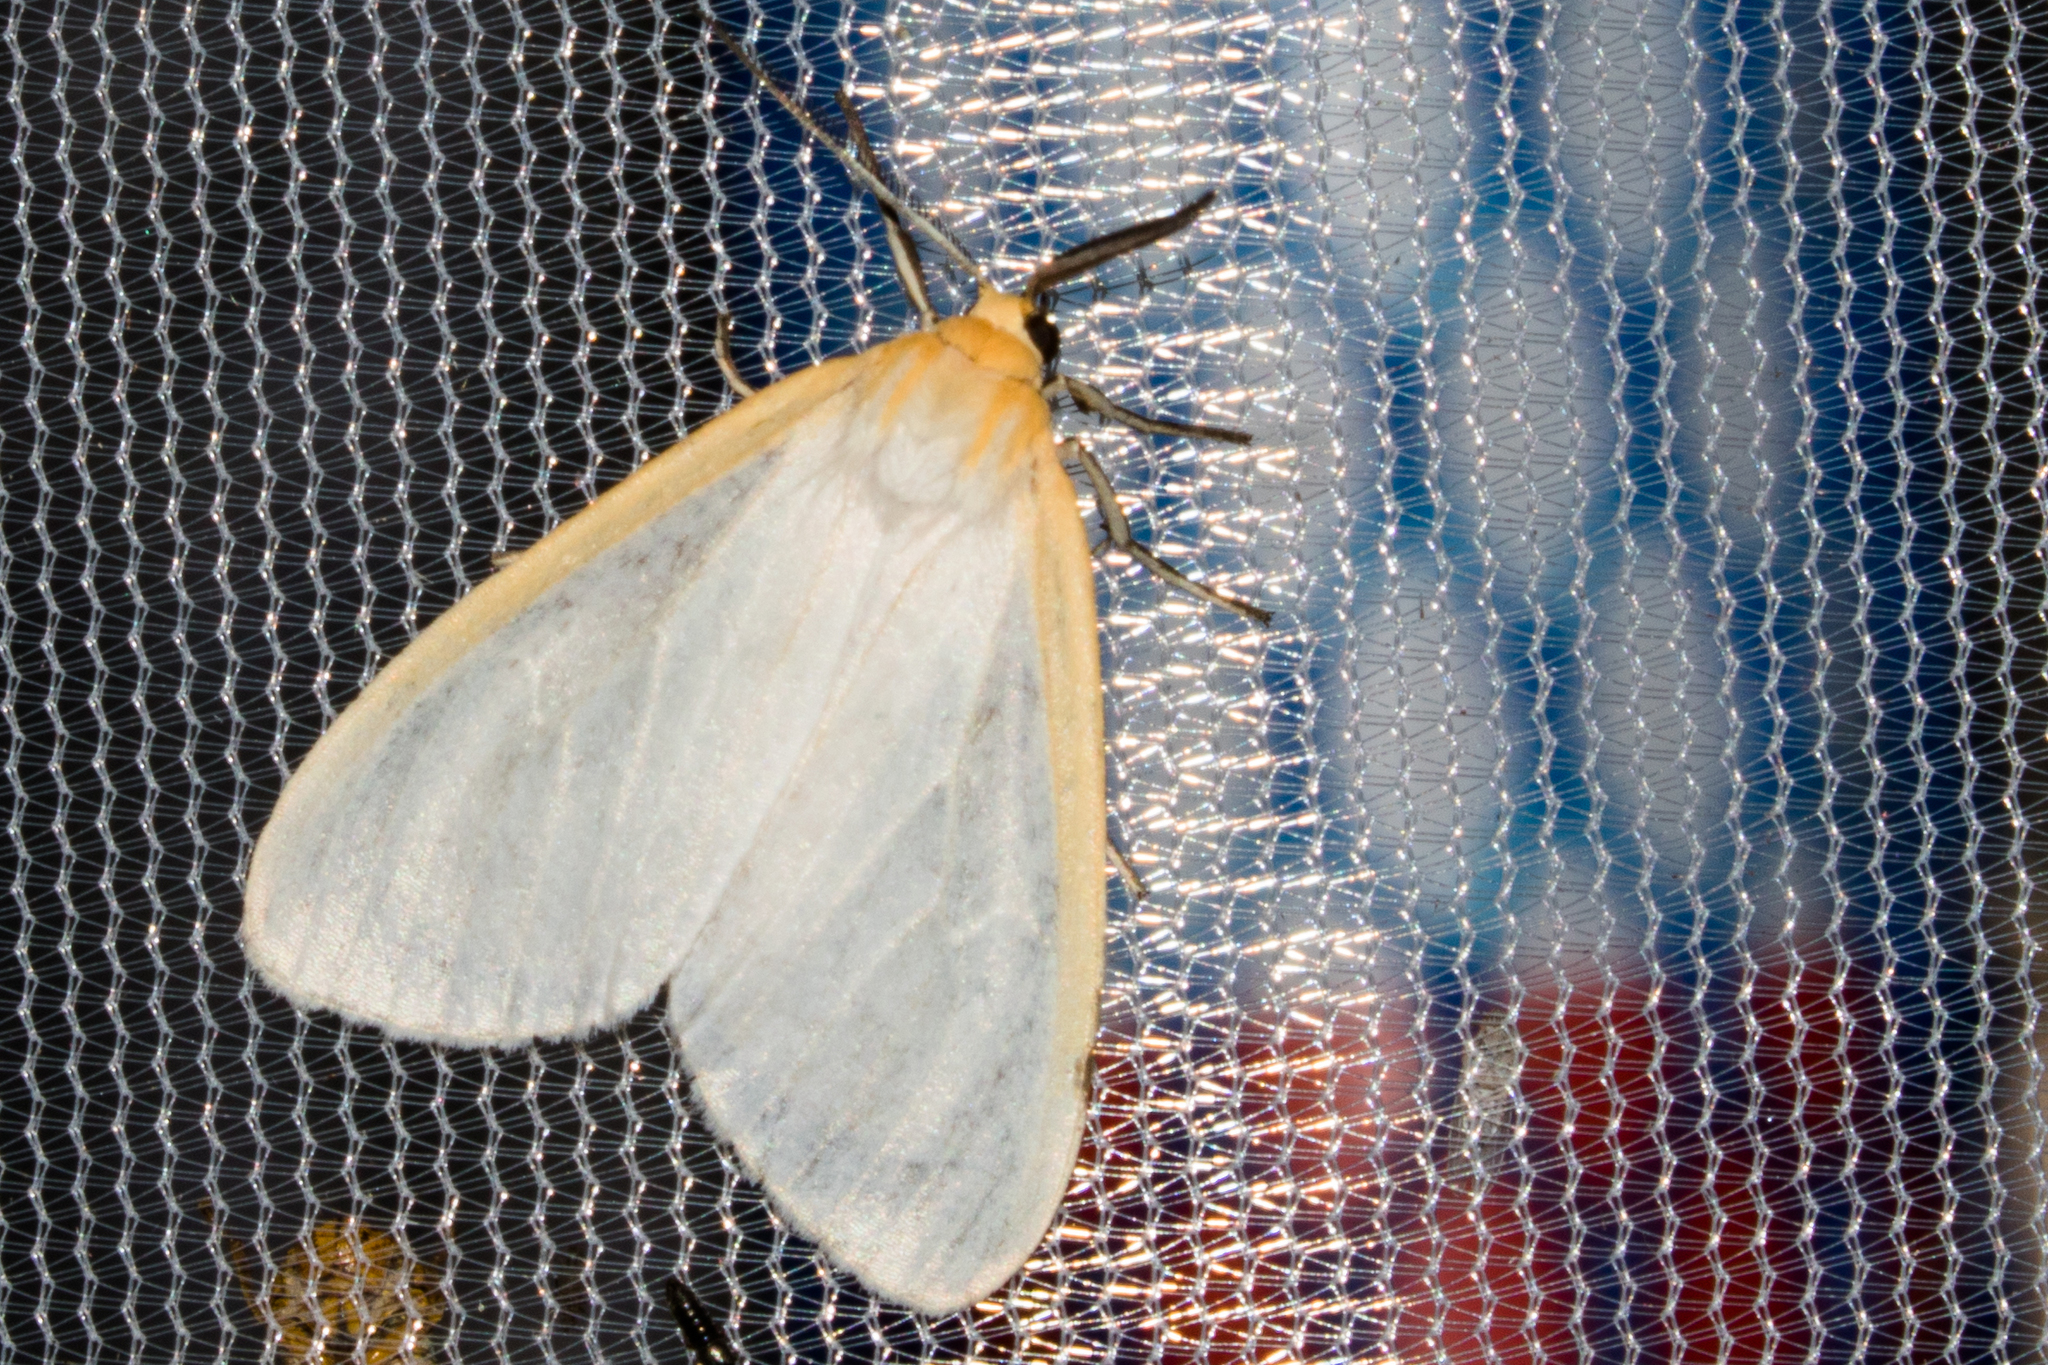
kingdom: Animalia
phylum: Arthropoda
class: Insecta
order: Lepidoptera
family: Erebidae
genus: Cycnia
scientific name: Cycnia tenera
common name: Delicate cycnia moth
